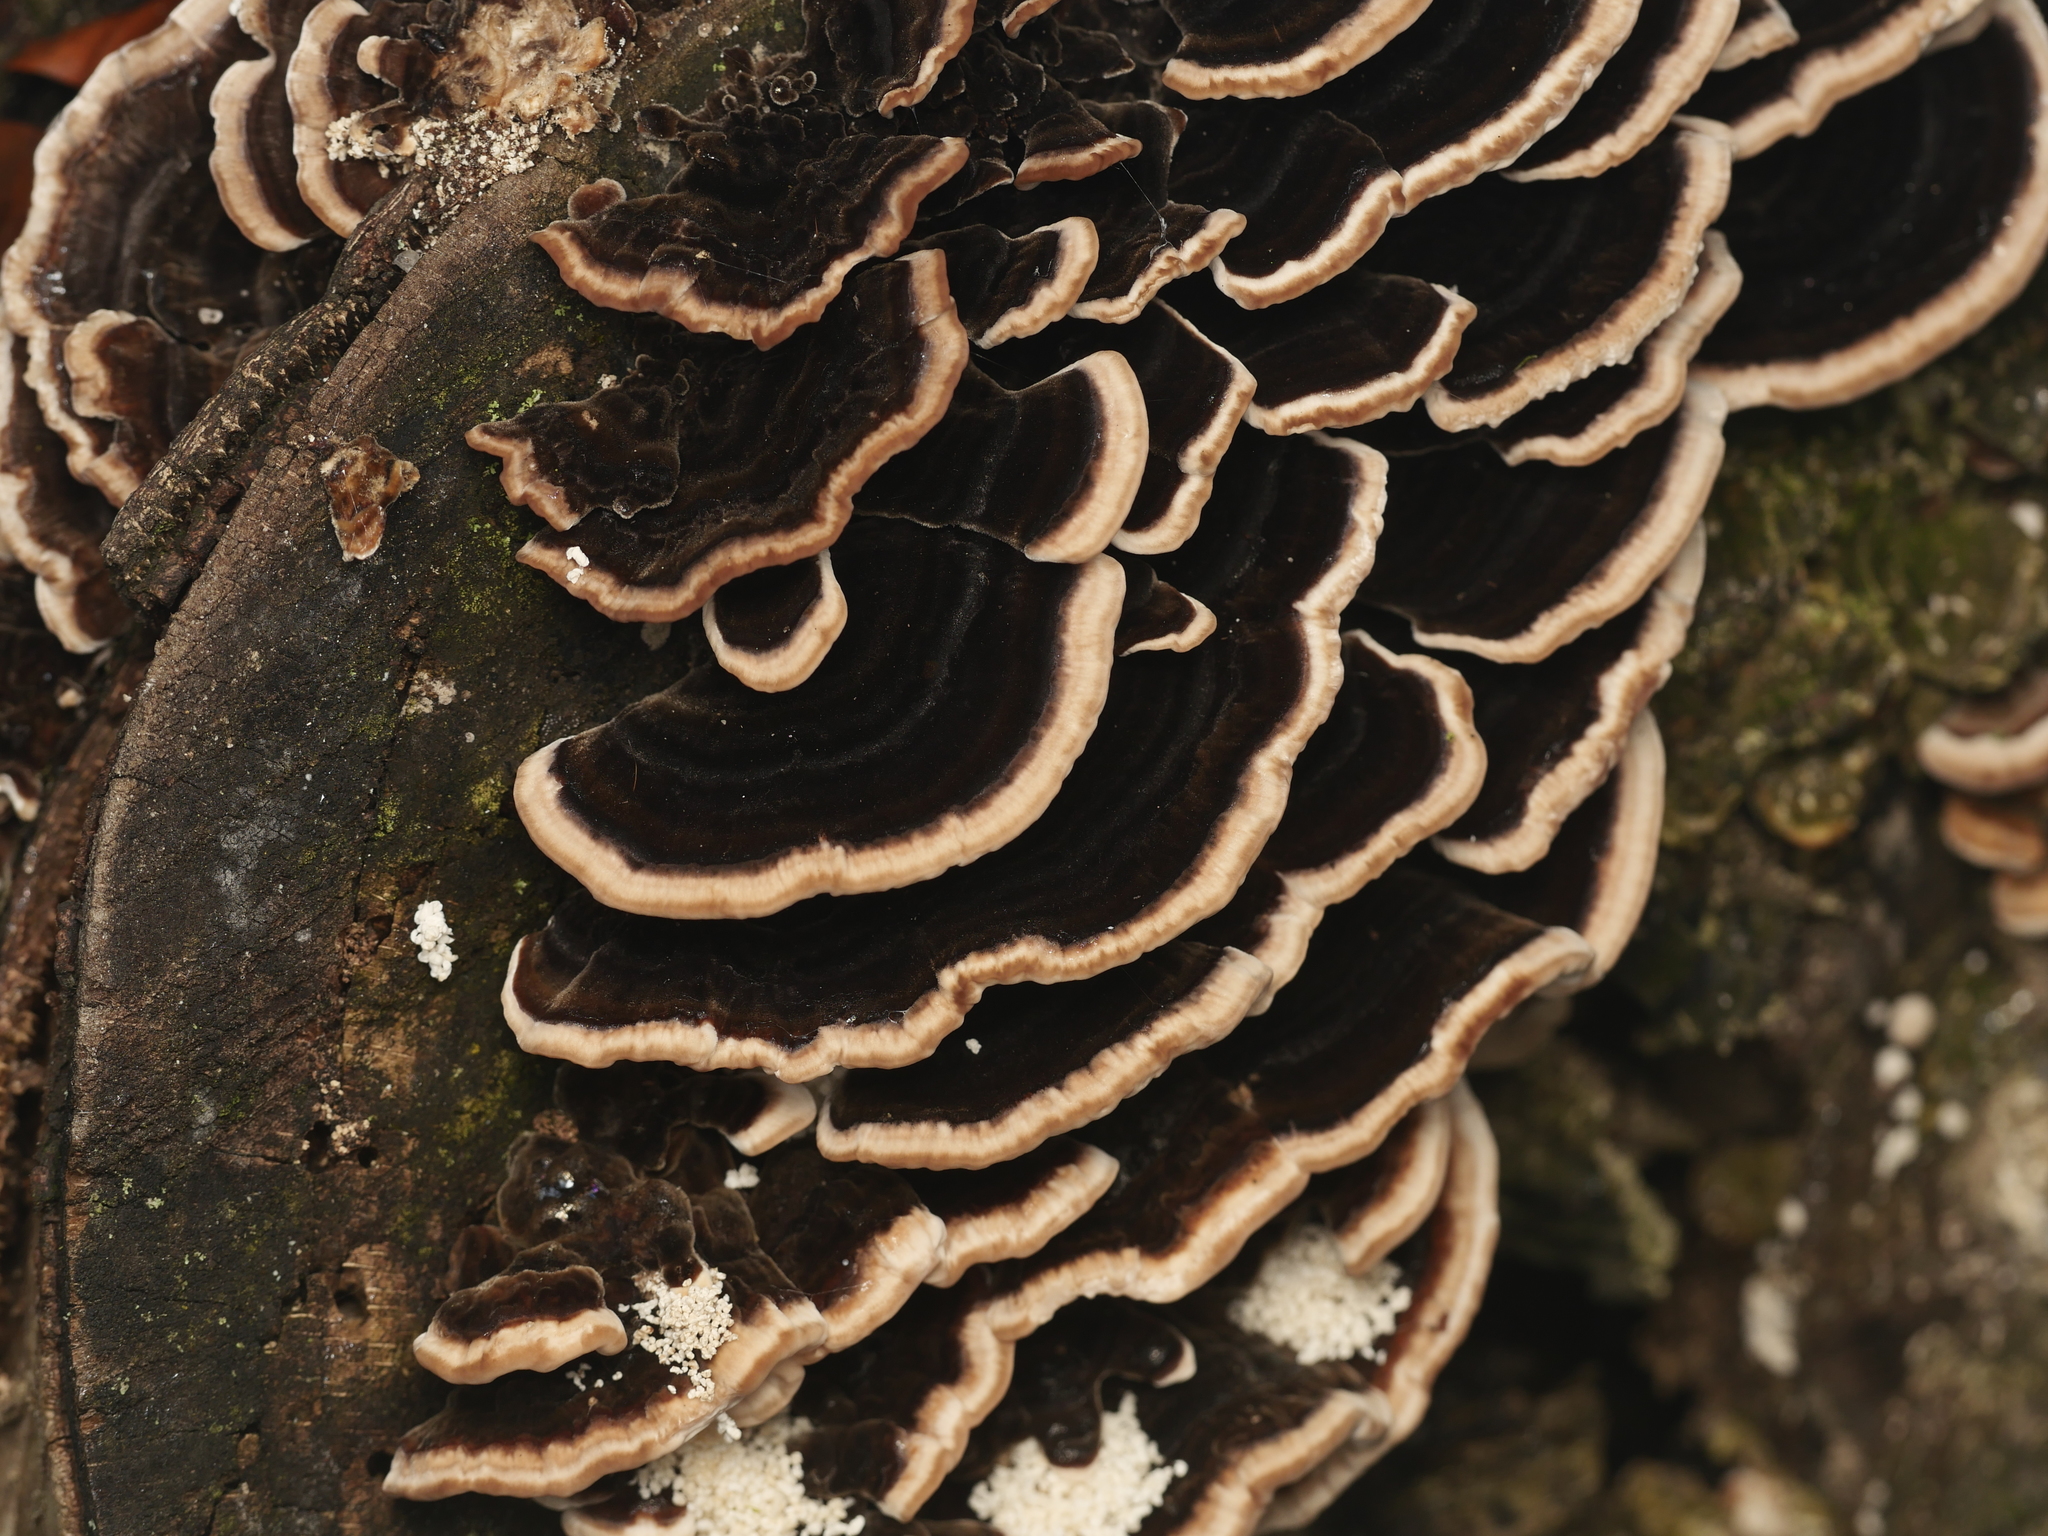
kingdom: Fungi
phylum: Basidiomycota
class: Agaricomycetes
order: Polyporales
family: Phanerochaetaceae
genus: Bjerkandera
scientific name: Bjerkandera adusta
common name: Smoky bracket
